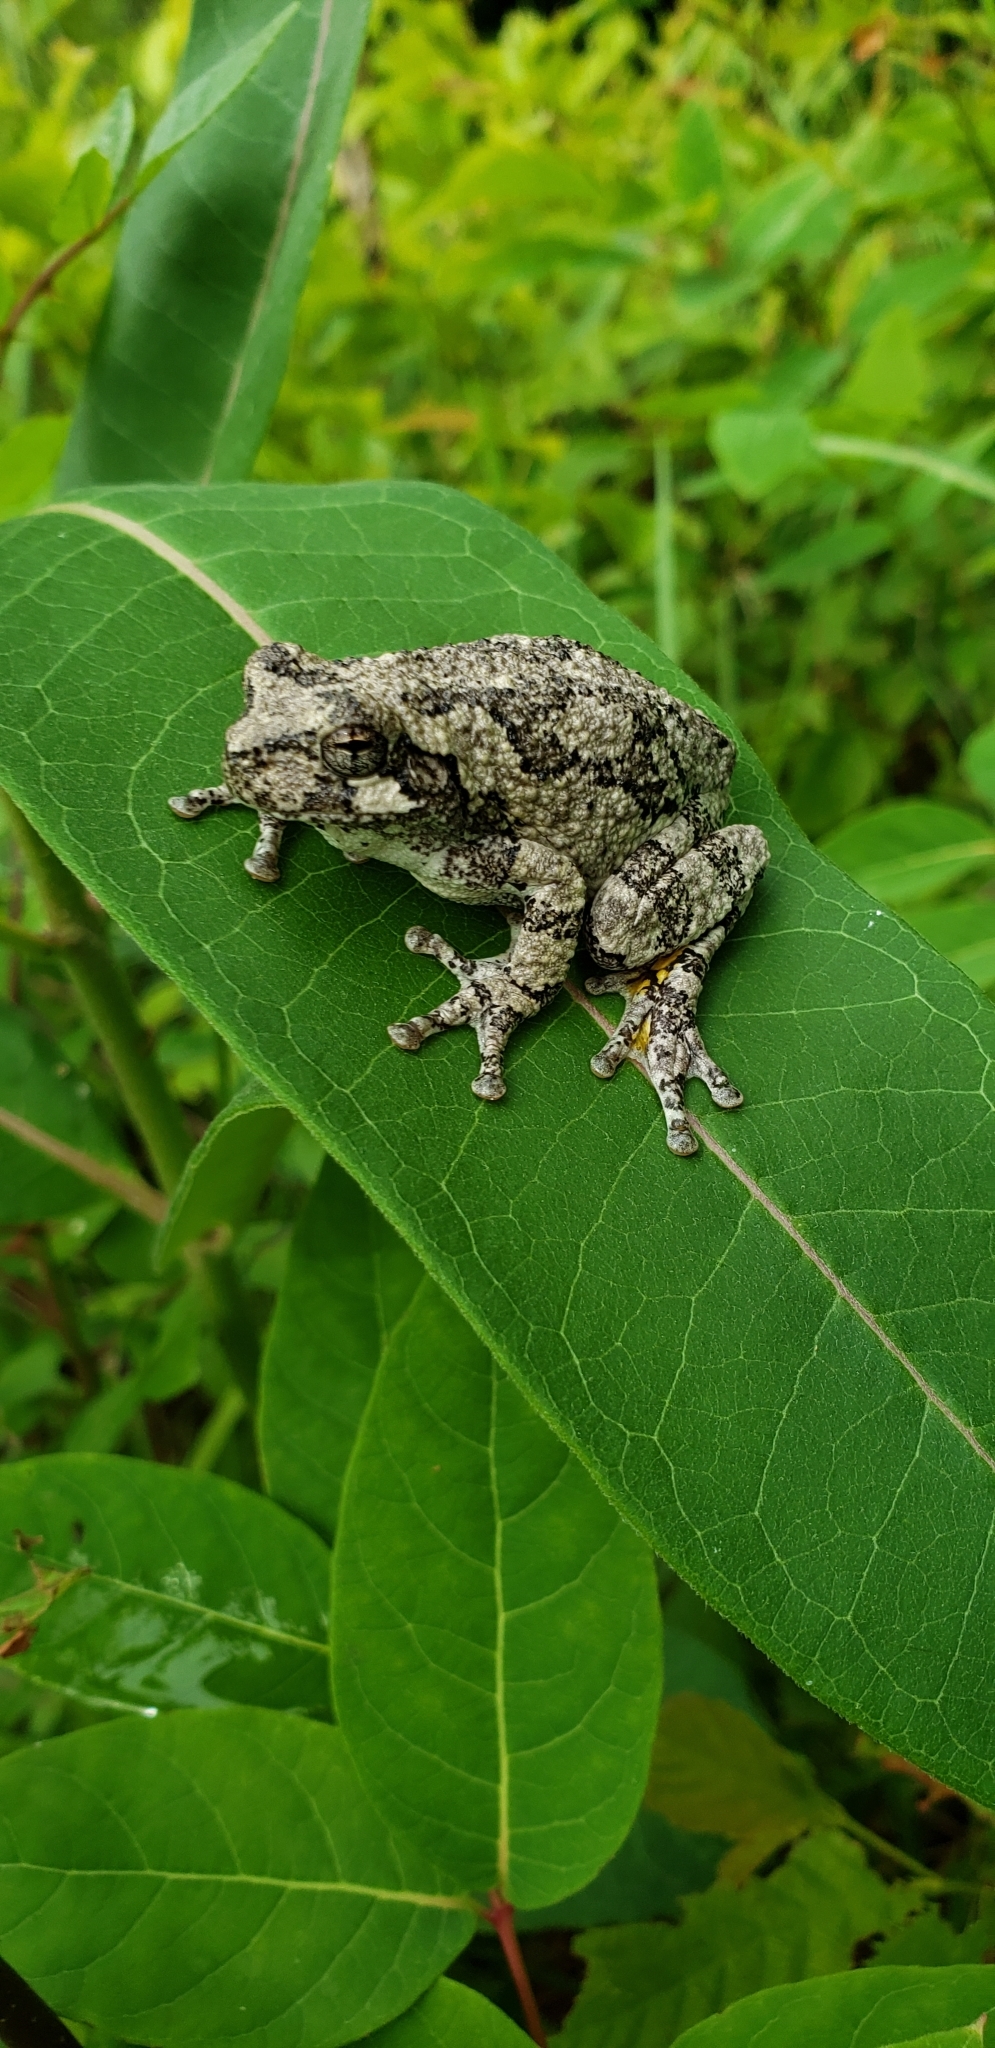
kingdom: Animalia
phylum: Chordata
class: Amphibia
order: Anura
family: Hylidae
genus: Dryophytes
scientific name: Dryophytes versicolor
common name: Gray treefrog
